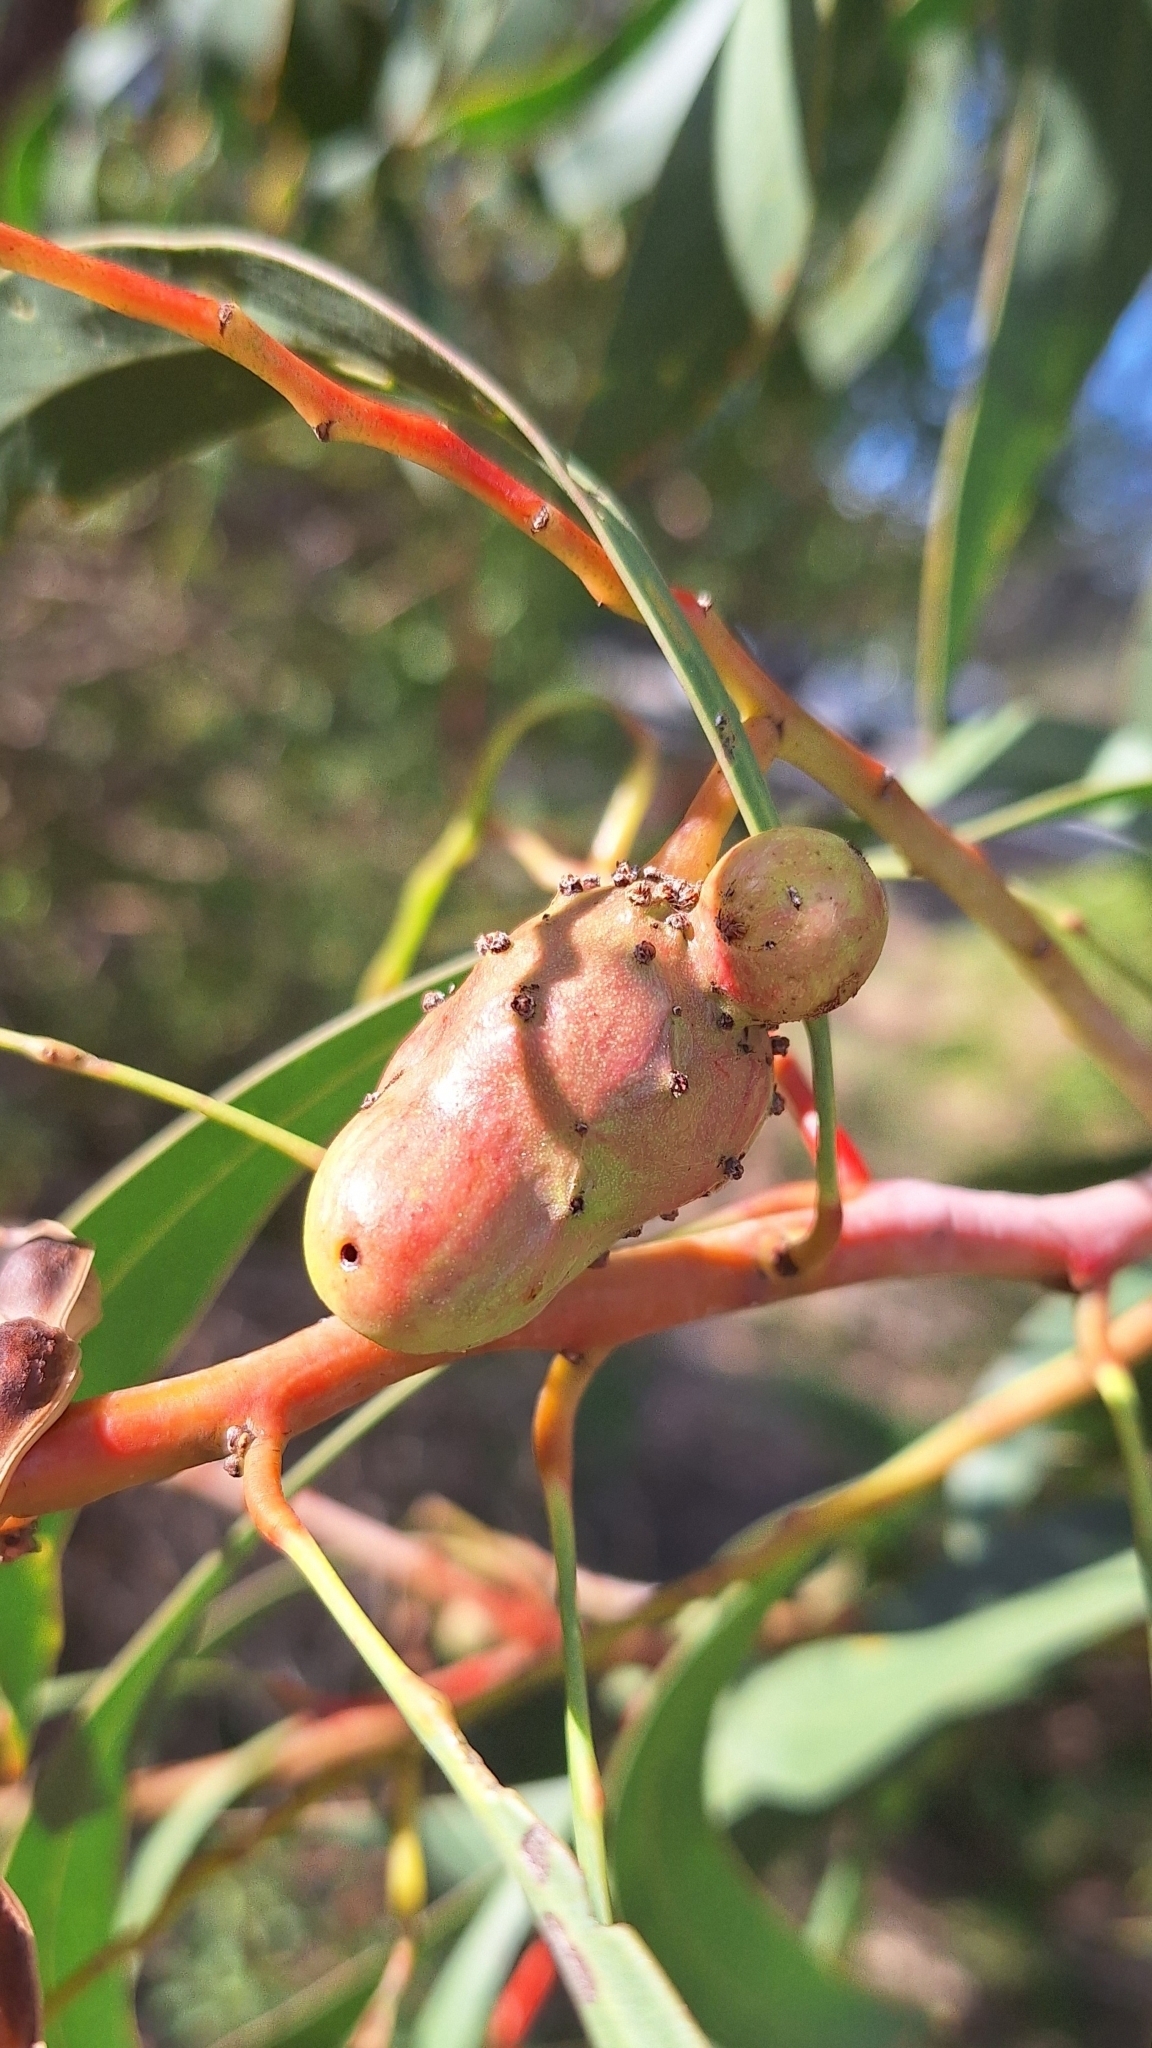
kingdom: Animalia
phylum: Arthropoda
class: Insecta
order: Hymenoptera
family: Pteromalidae
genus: Trichilogaster
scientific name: Trichilogaster signiventris
